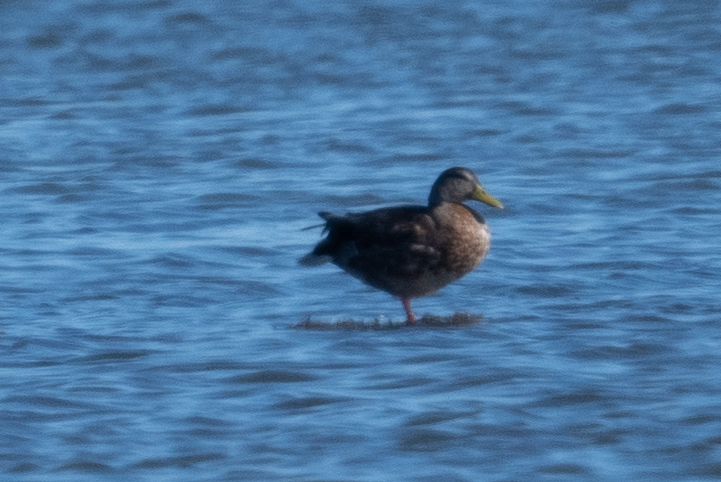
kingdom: Animalia
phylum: Chordata
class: Aves
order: Anseriformes
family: Anatidae
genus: Anas
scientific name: Anas platyrhynchos
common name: Mallard
